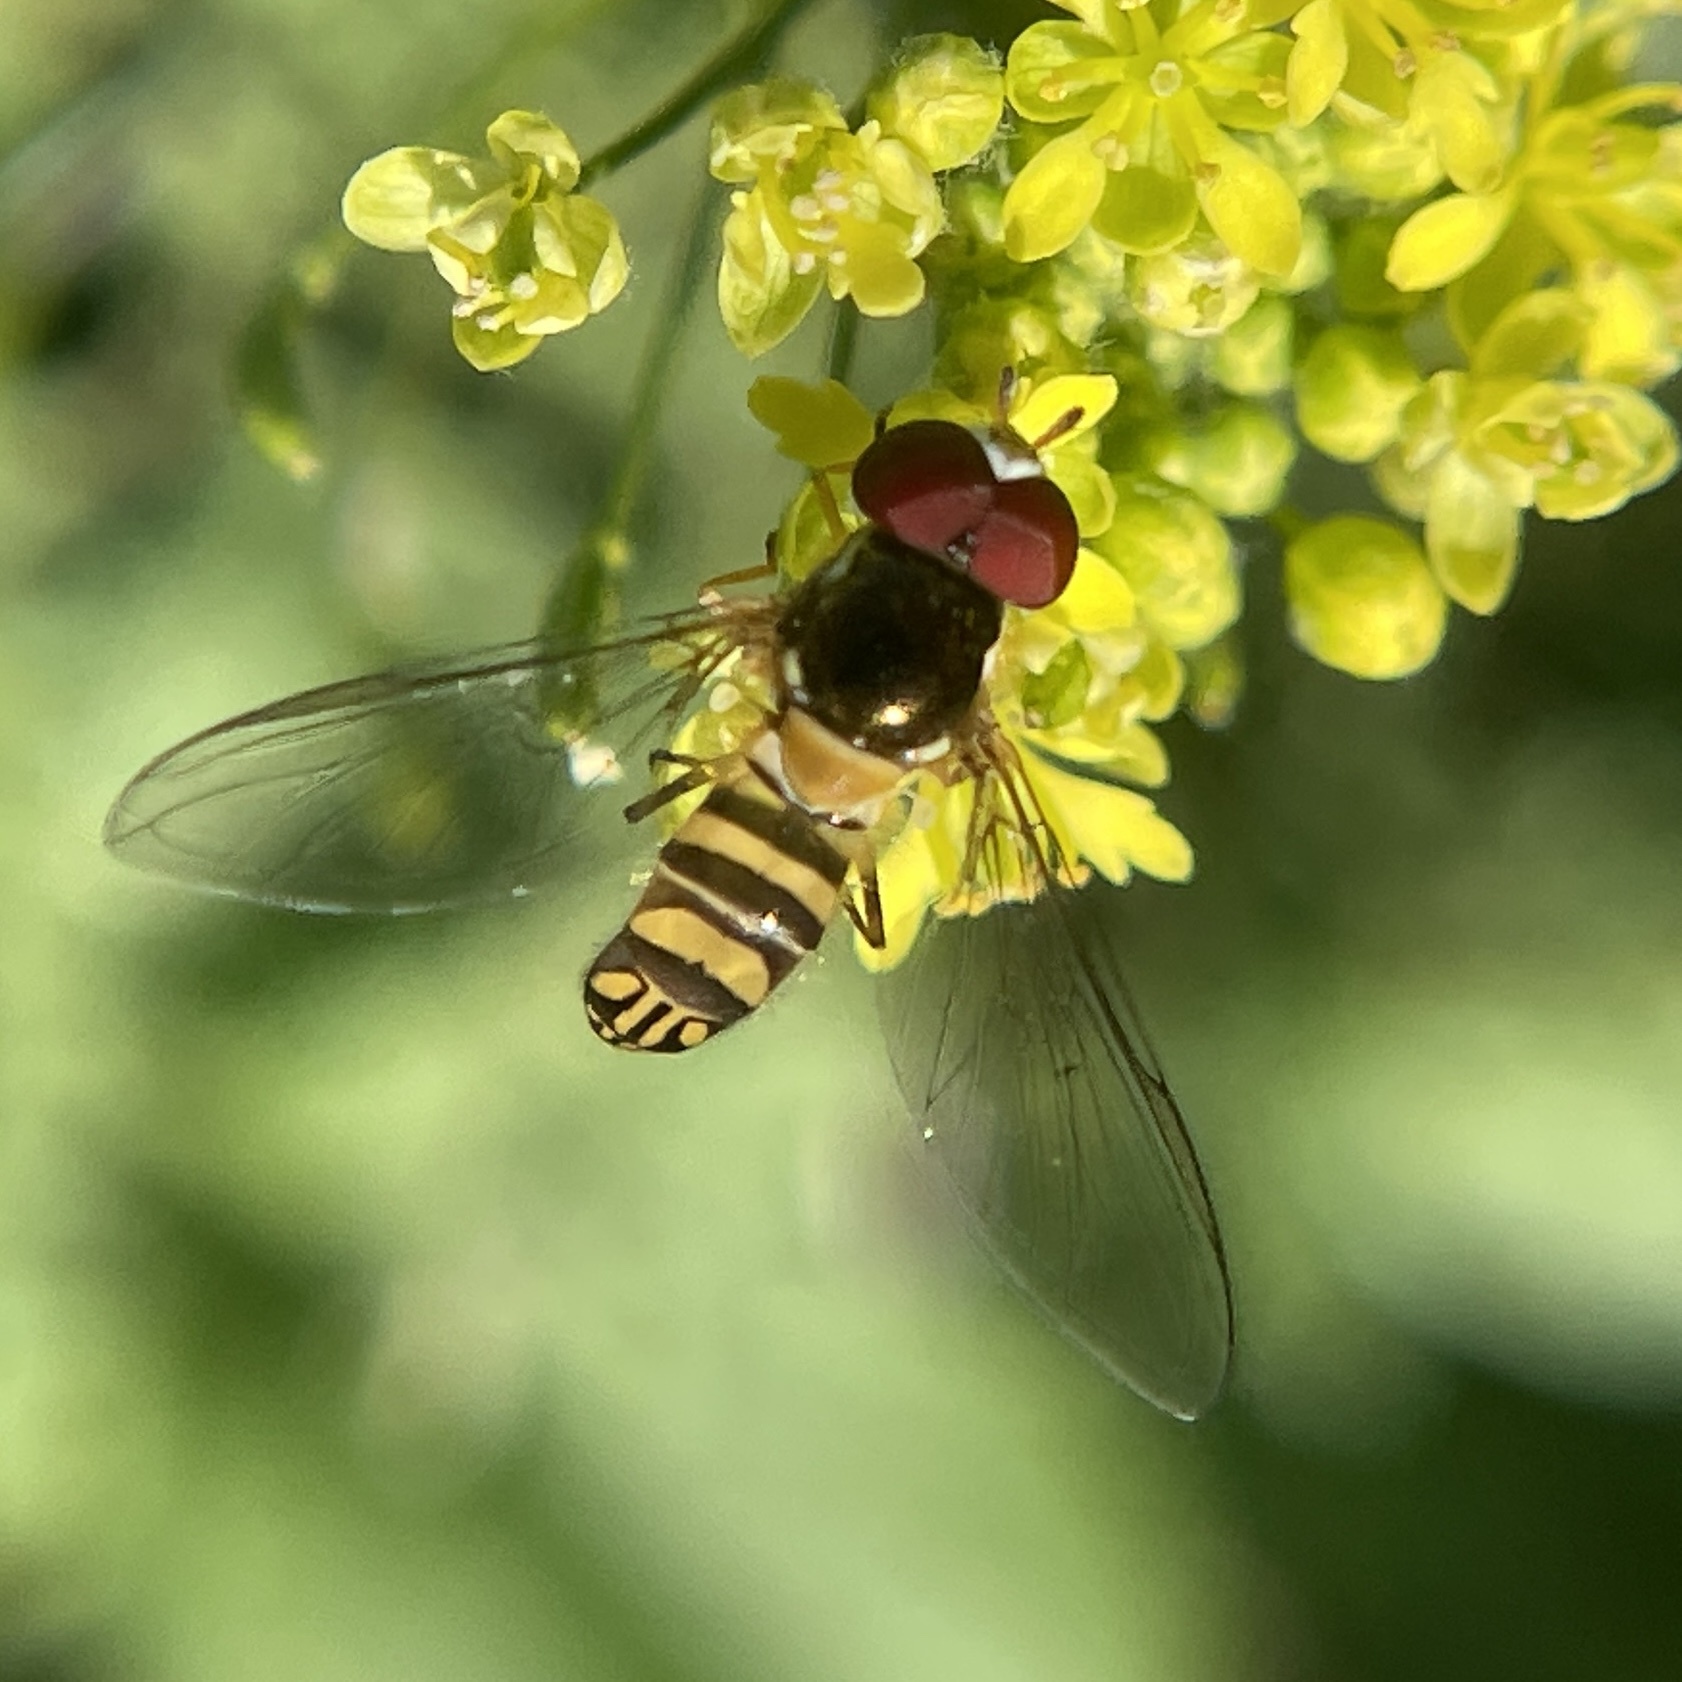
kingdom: Animalia
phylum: Arthropoda
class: Insecta
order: Diptera
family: Syrphidae
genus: Allograpta
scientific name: Allograpta obliqua
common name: Common oblique syrphid
